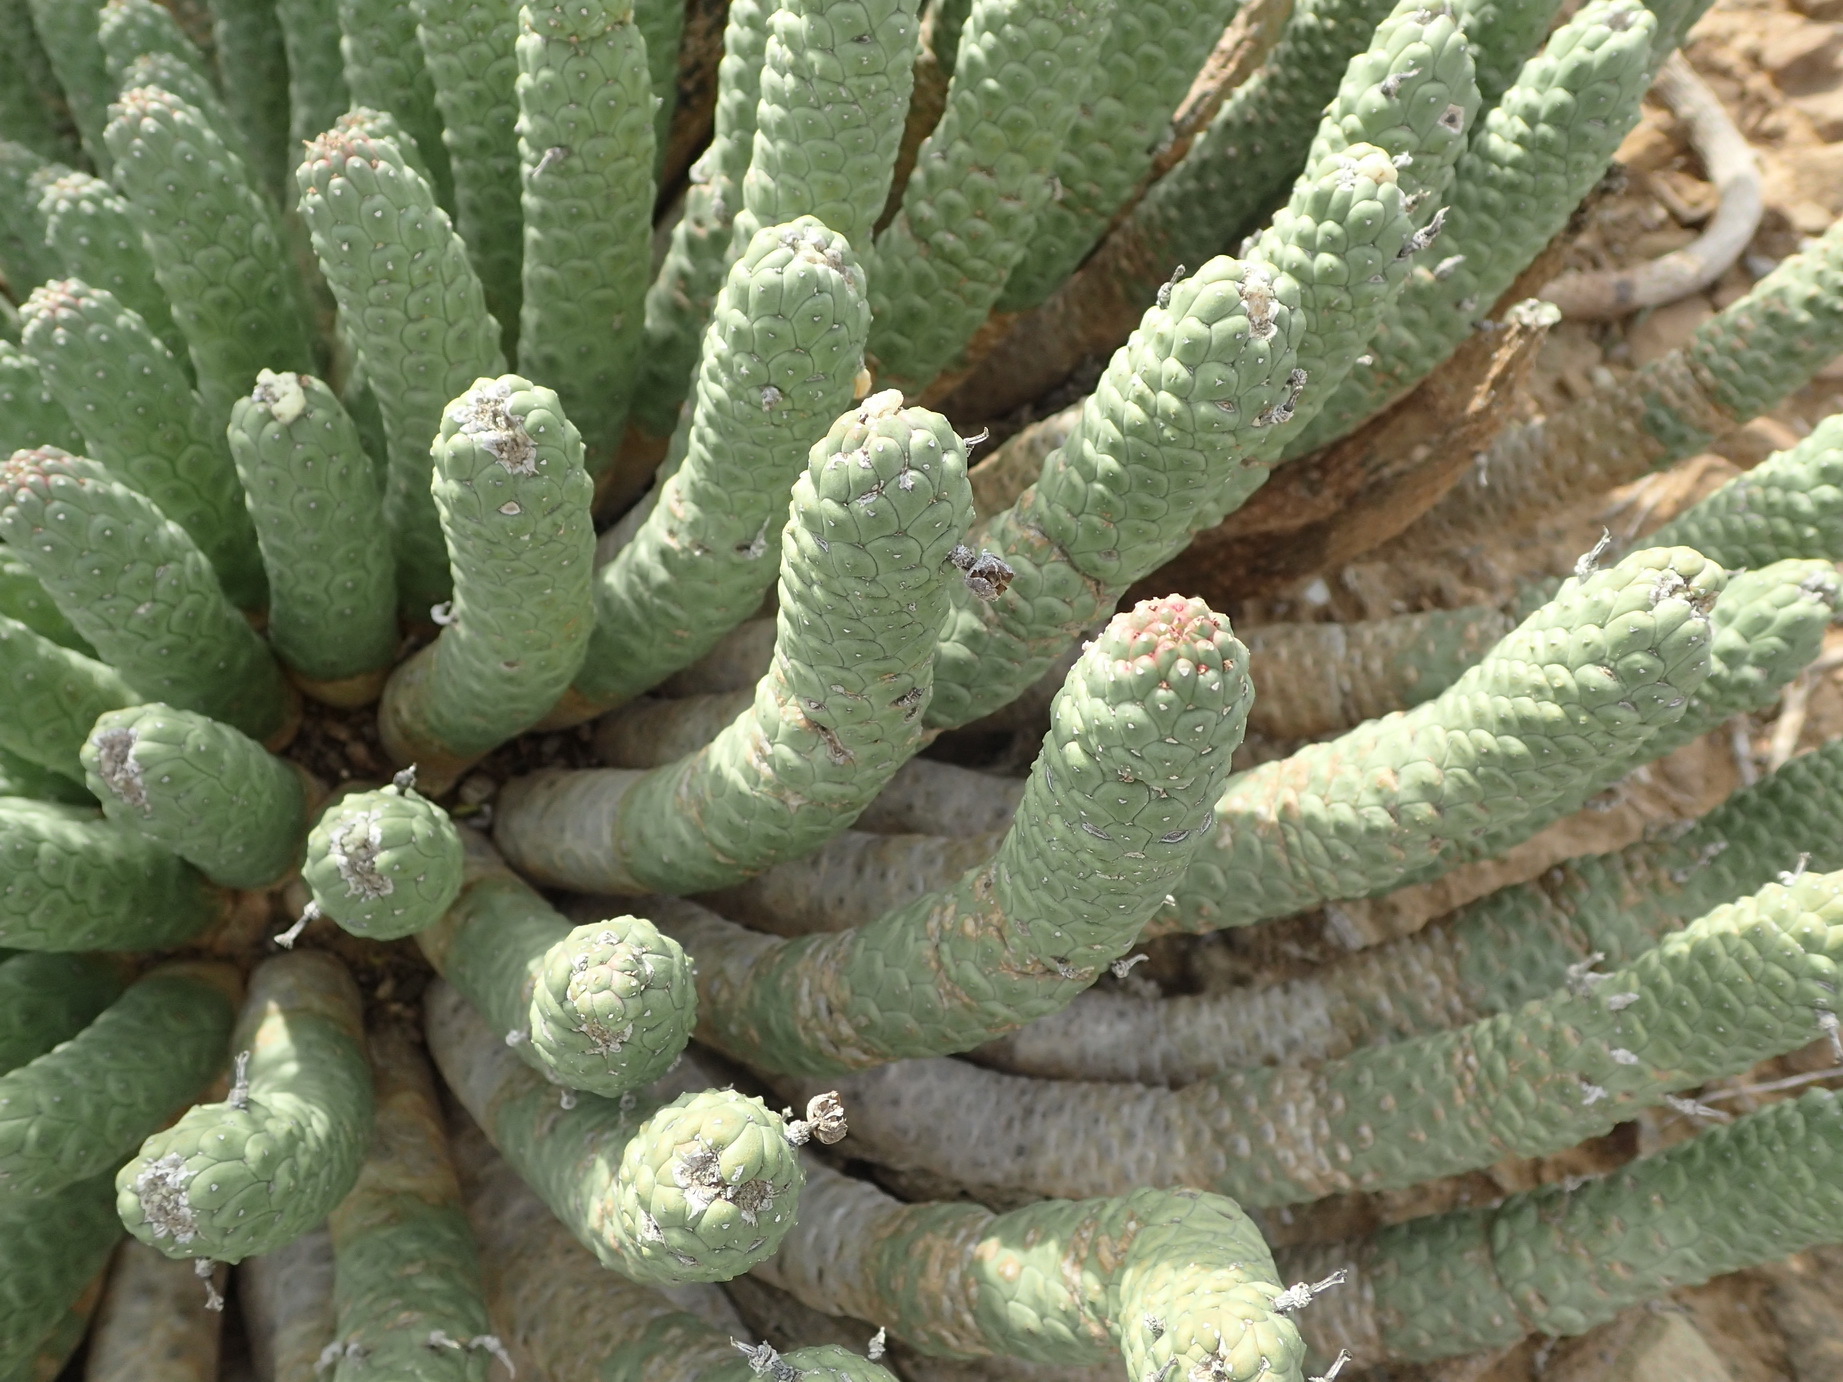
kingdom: Plantae
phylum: Tracheophyta
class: Magnoliopsida
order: Malpighiales
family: Euphorbiaceae
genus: Euphorbia
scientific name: Euphorbia esculenta
